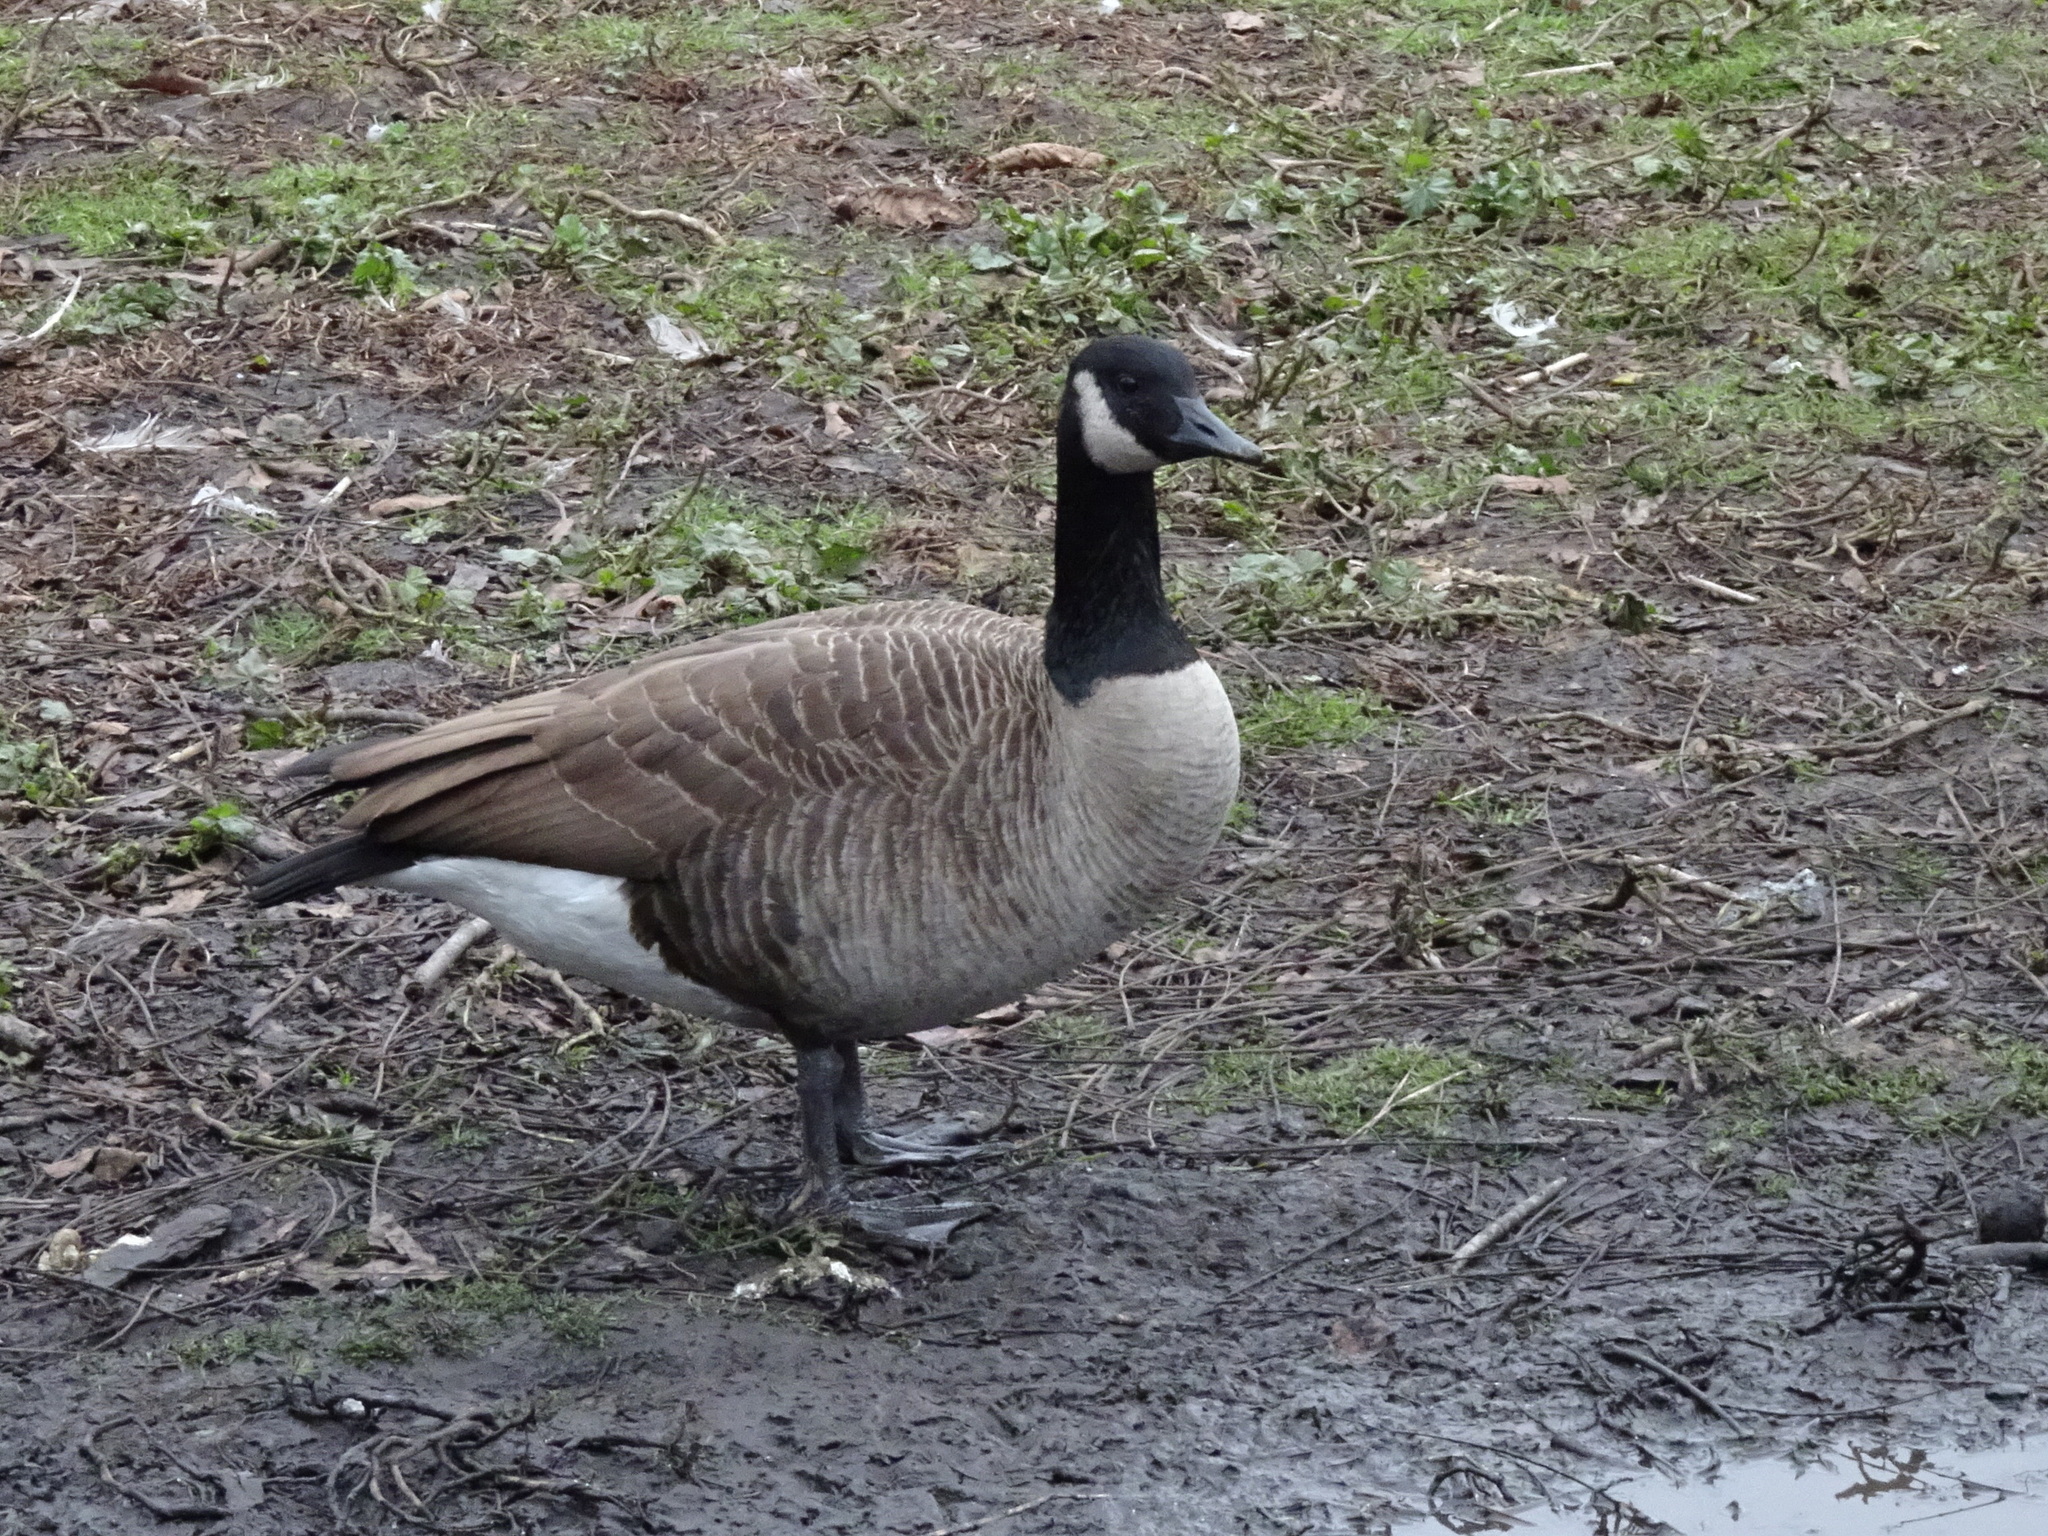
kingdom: Animalia
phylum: Chordata
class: Aves
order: Anseriformes
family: Anatidae
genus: Branta
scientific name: Branta canadensis
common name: Canada goose
